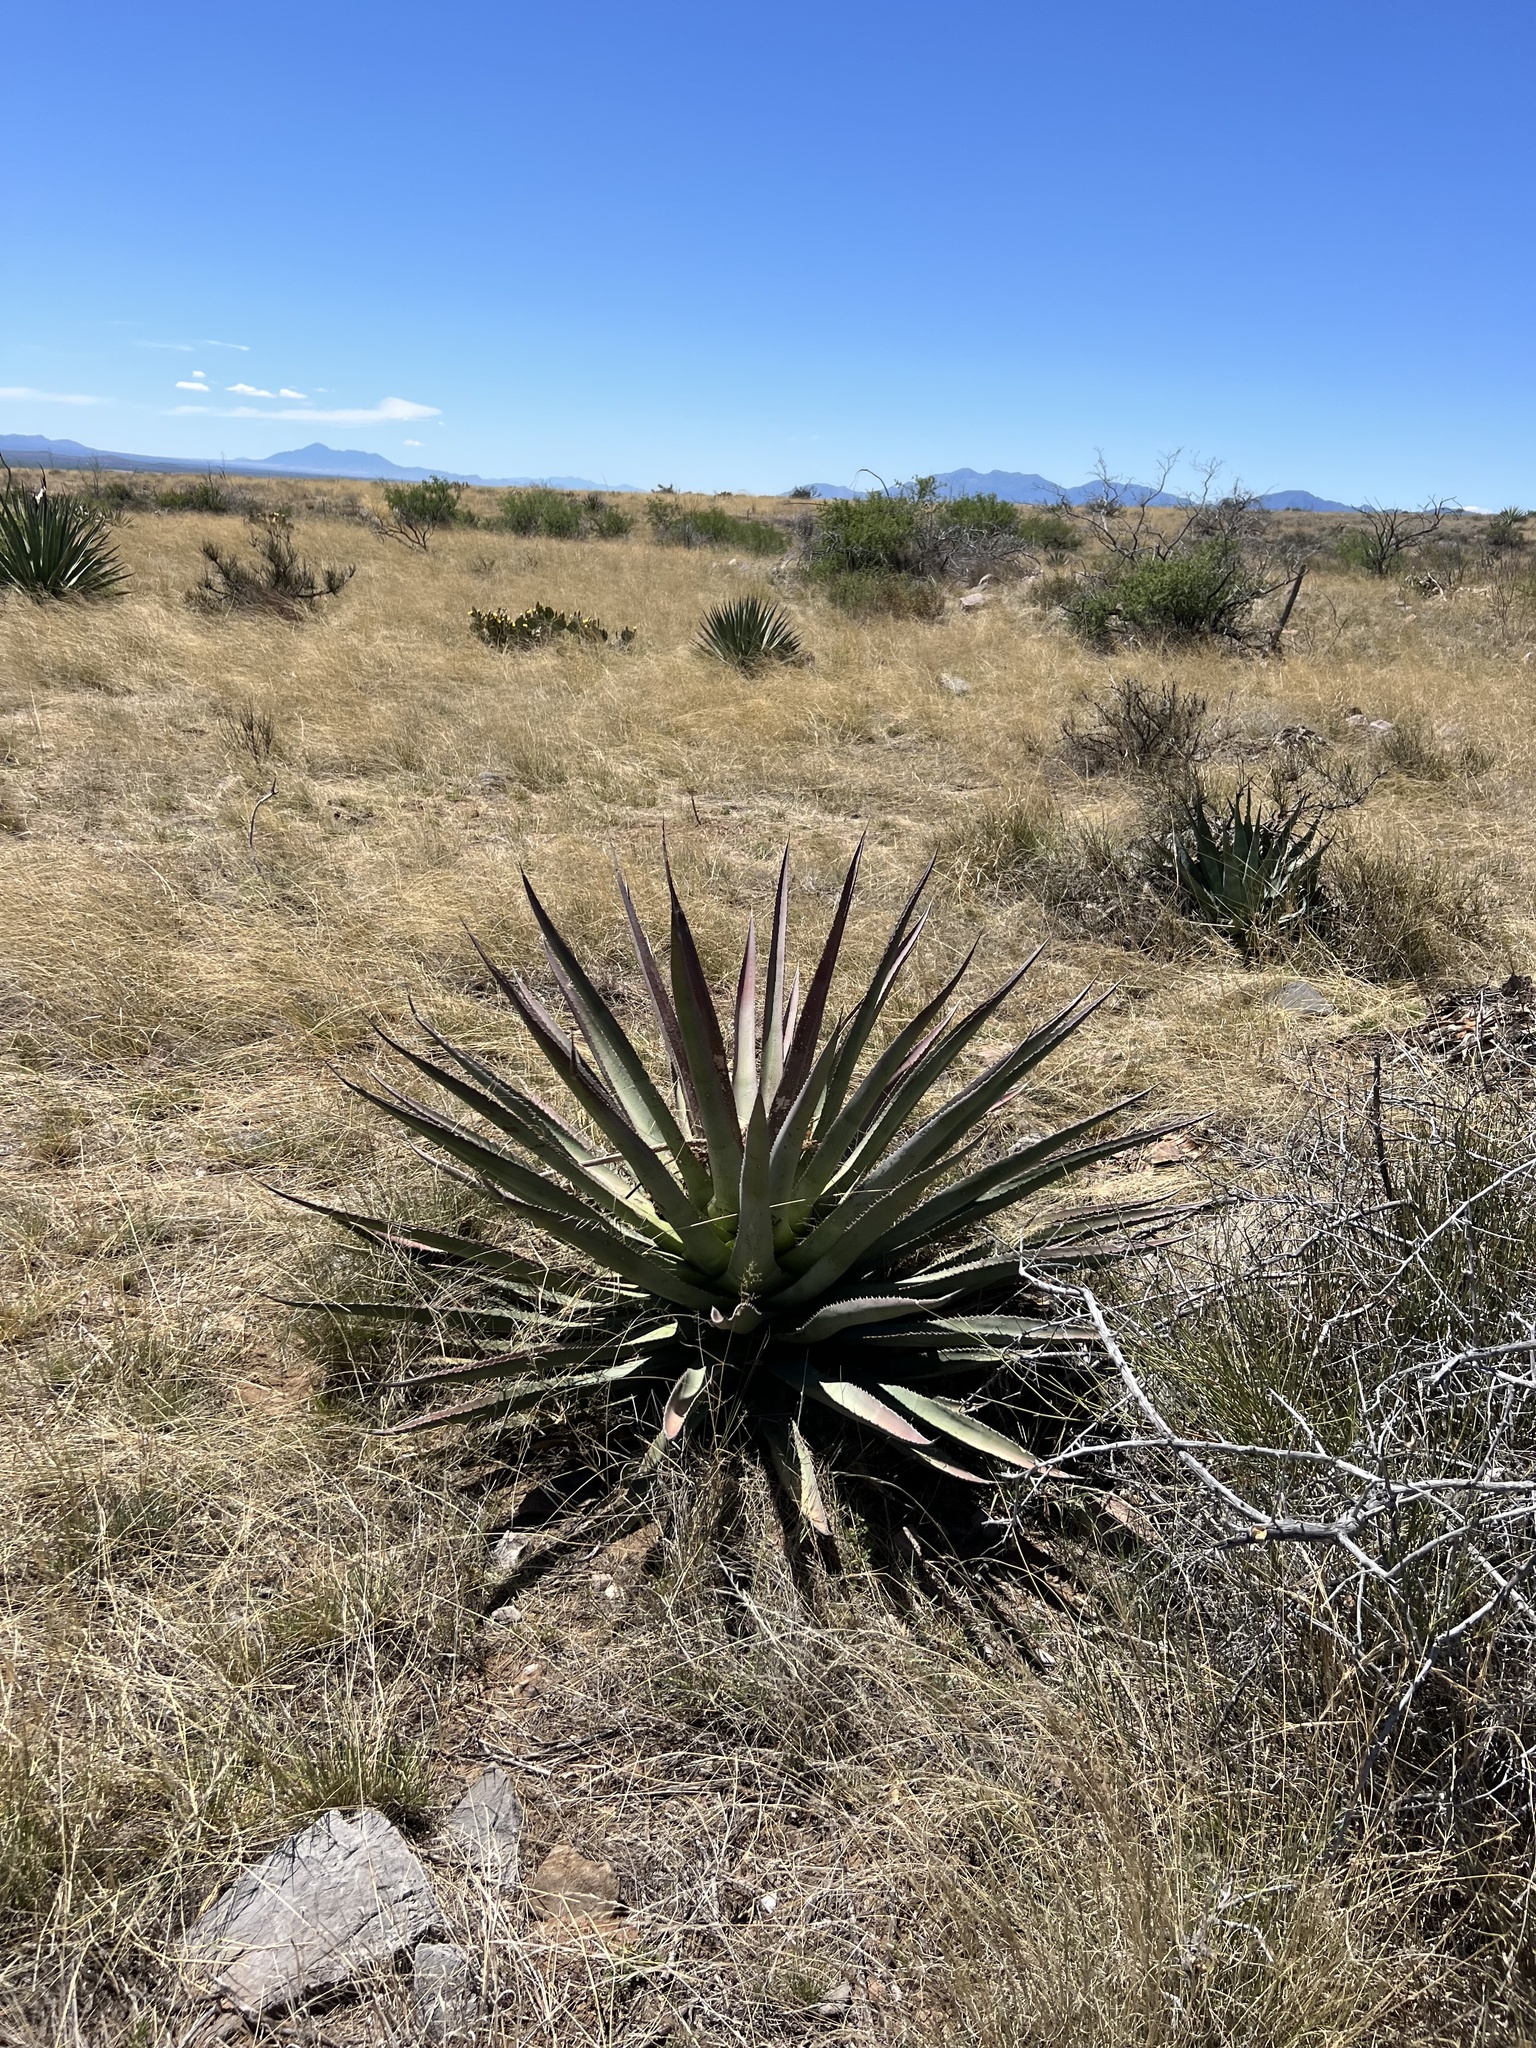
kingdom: Plantae
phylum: Tracheophyta
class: Liliopsida
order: Asparagales
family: Asparagaceae
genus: Agave
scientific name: Agave palmeri
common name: Palmer agave
